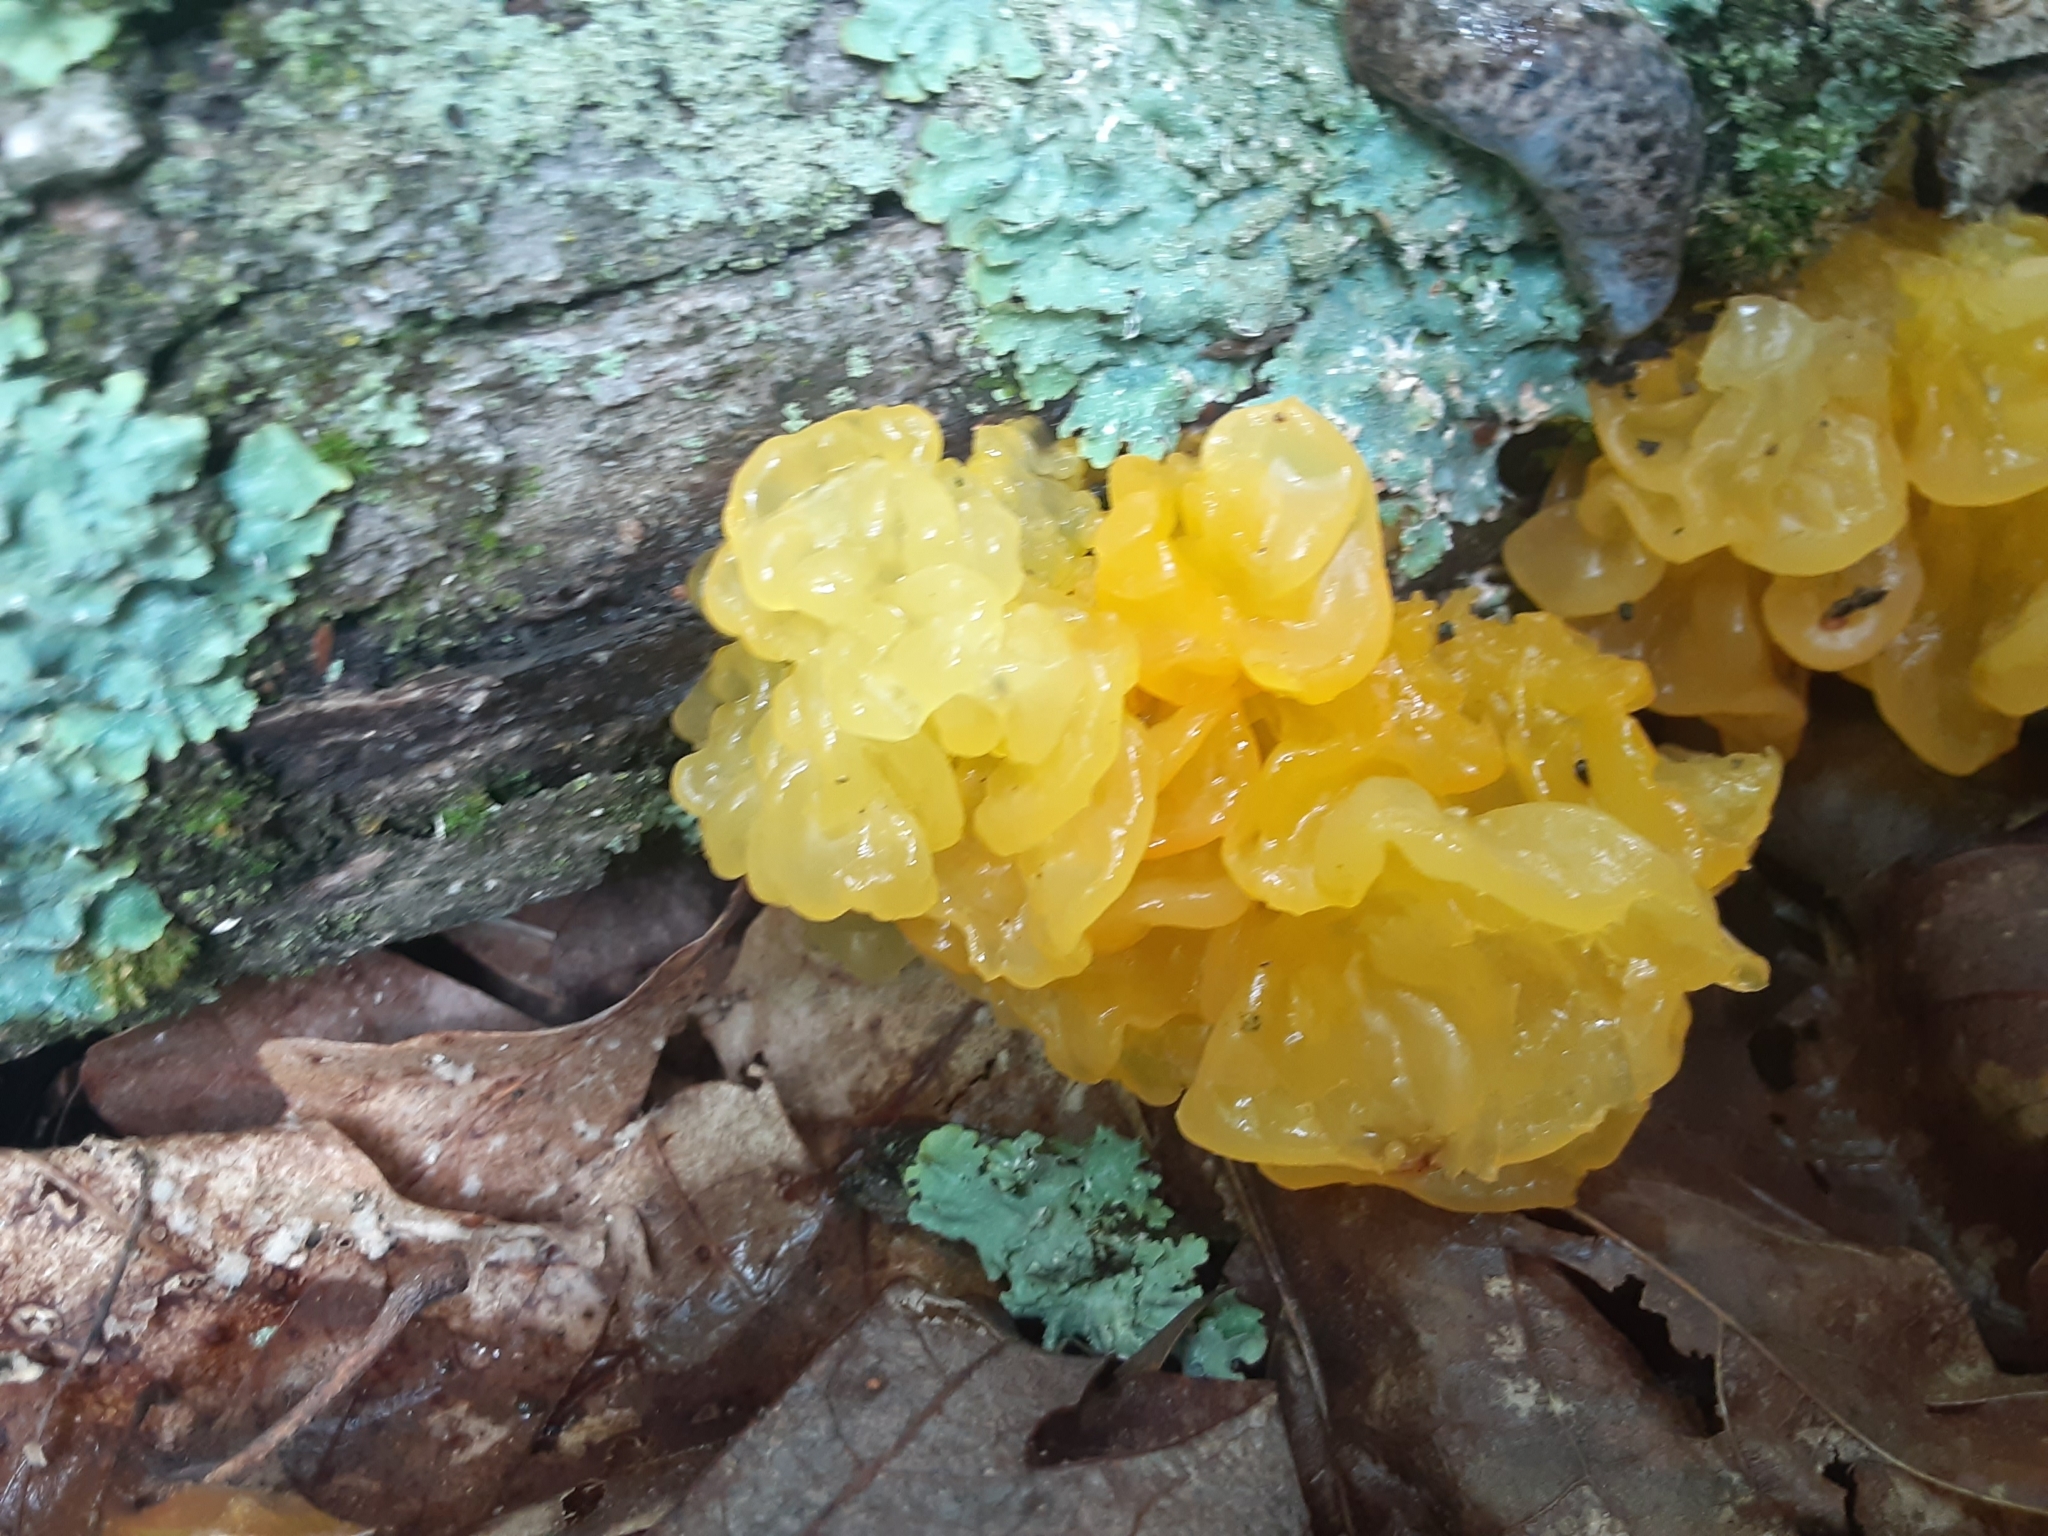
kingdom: Fungi
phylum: Basidiomycota
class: Tremellomycetes
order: Tremellales
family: Tremellaceae
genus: Tremella
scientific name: Tremella mesenterica
